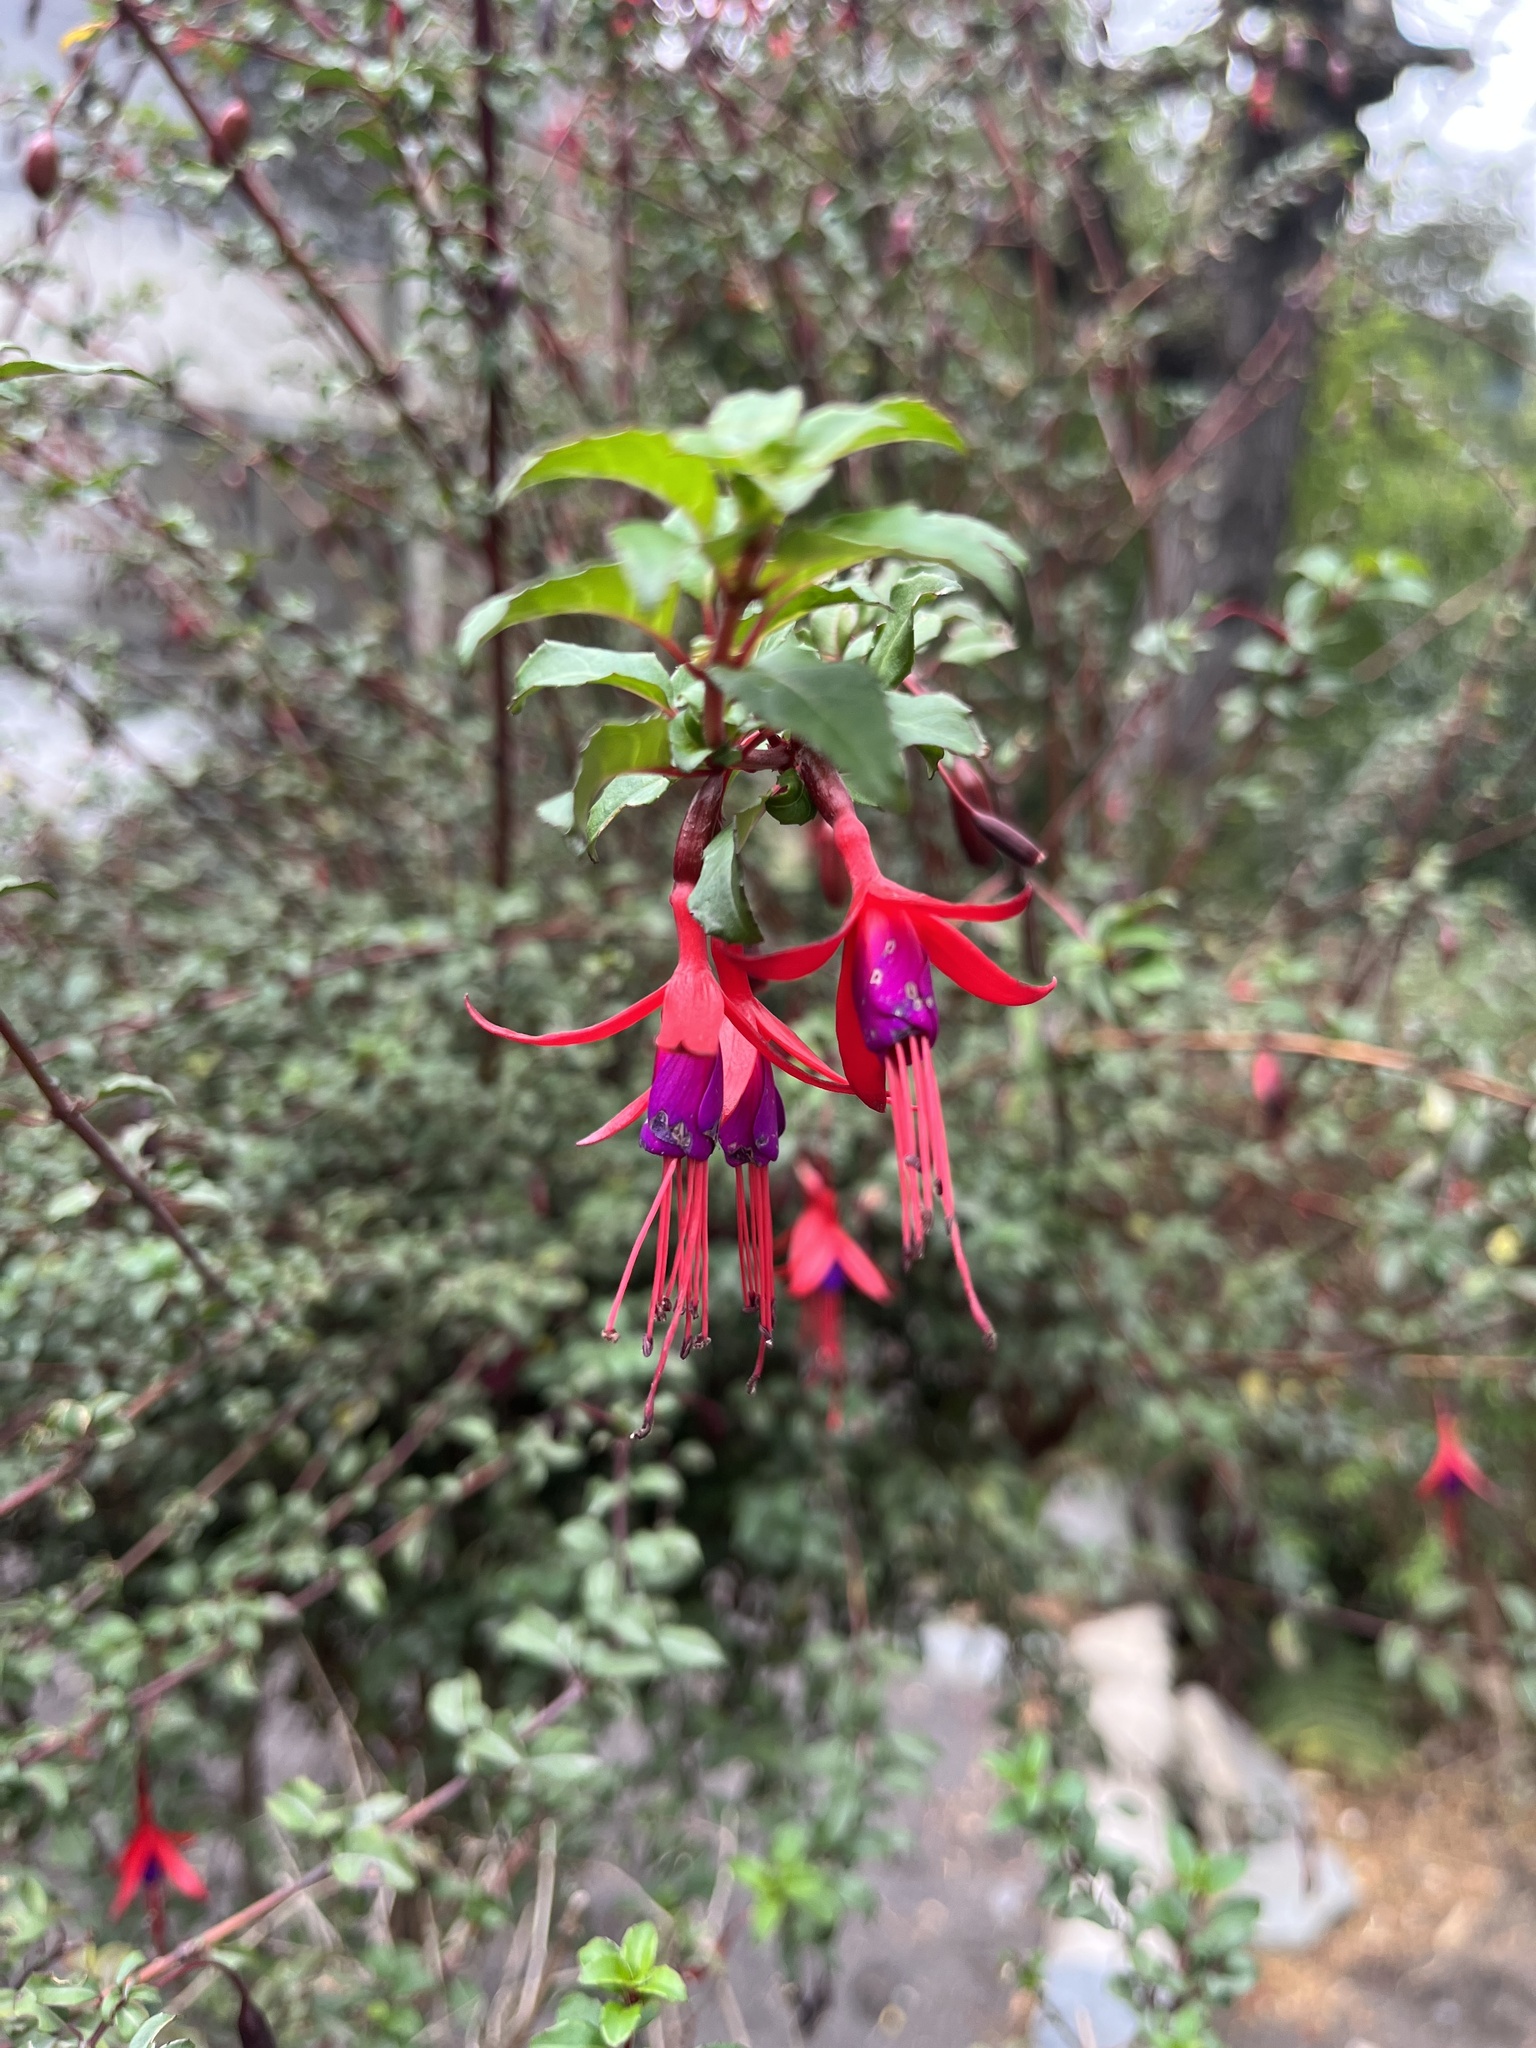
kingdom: Plantae
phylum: Tracheophyta
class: Magnoliopsida
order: Myrtales
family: Onagraceae
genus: Fuchsia
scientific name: Fuchsia magellanica
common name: Hardy fuchsia
